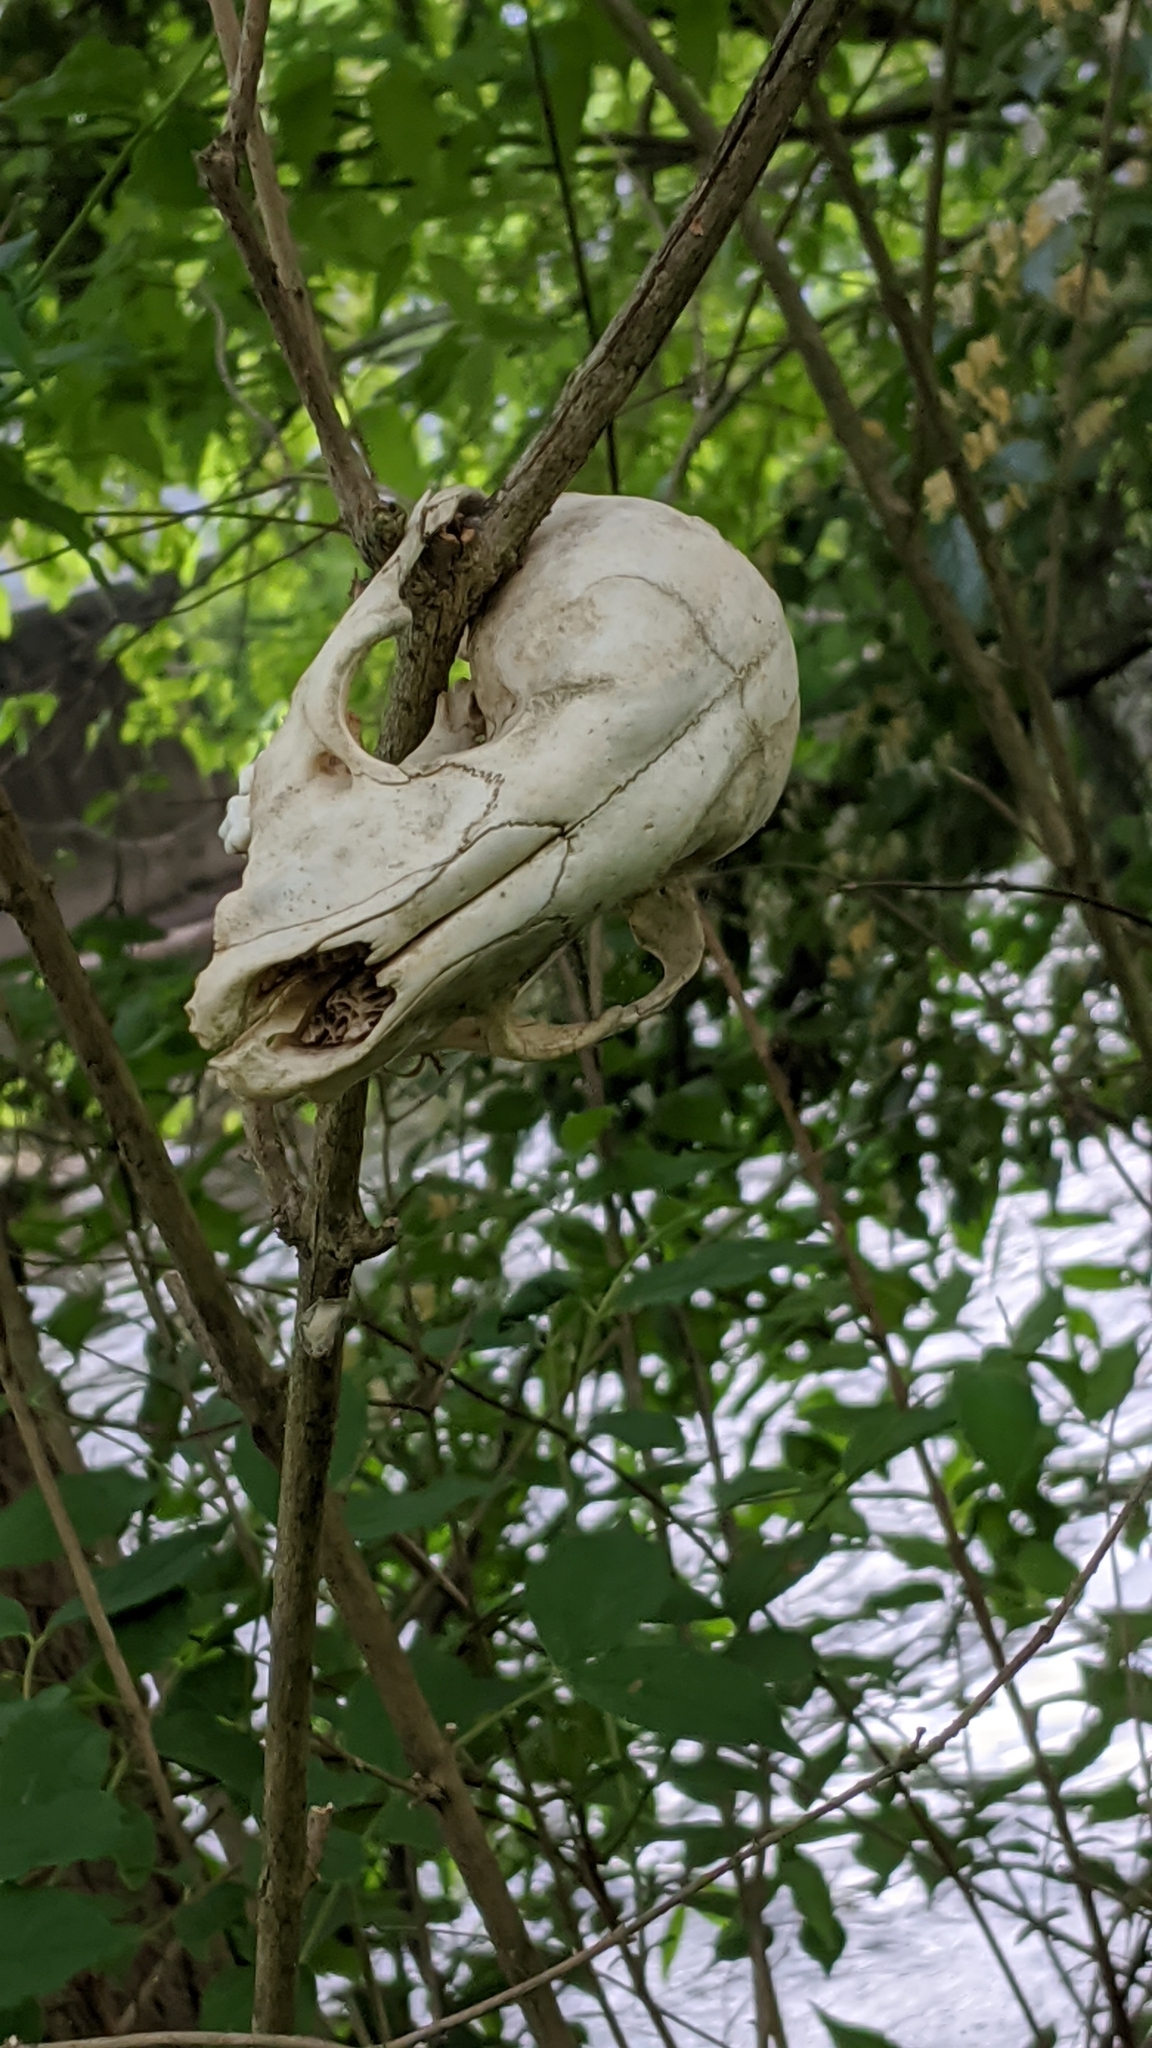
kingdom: Animalia
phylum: Chordata
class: Mammalia
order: Carnivora
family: Procyonidae
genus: Procyon
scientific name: Procyon lotor
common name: Raccoon
